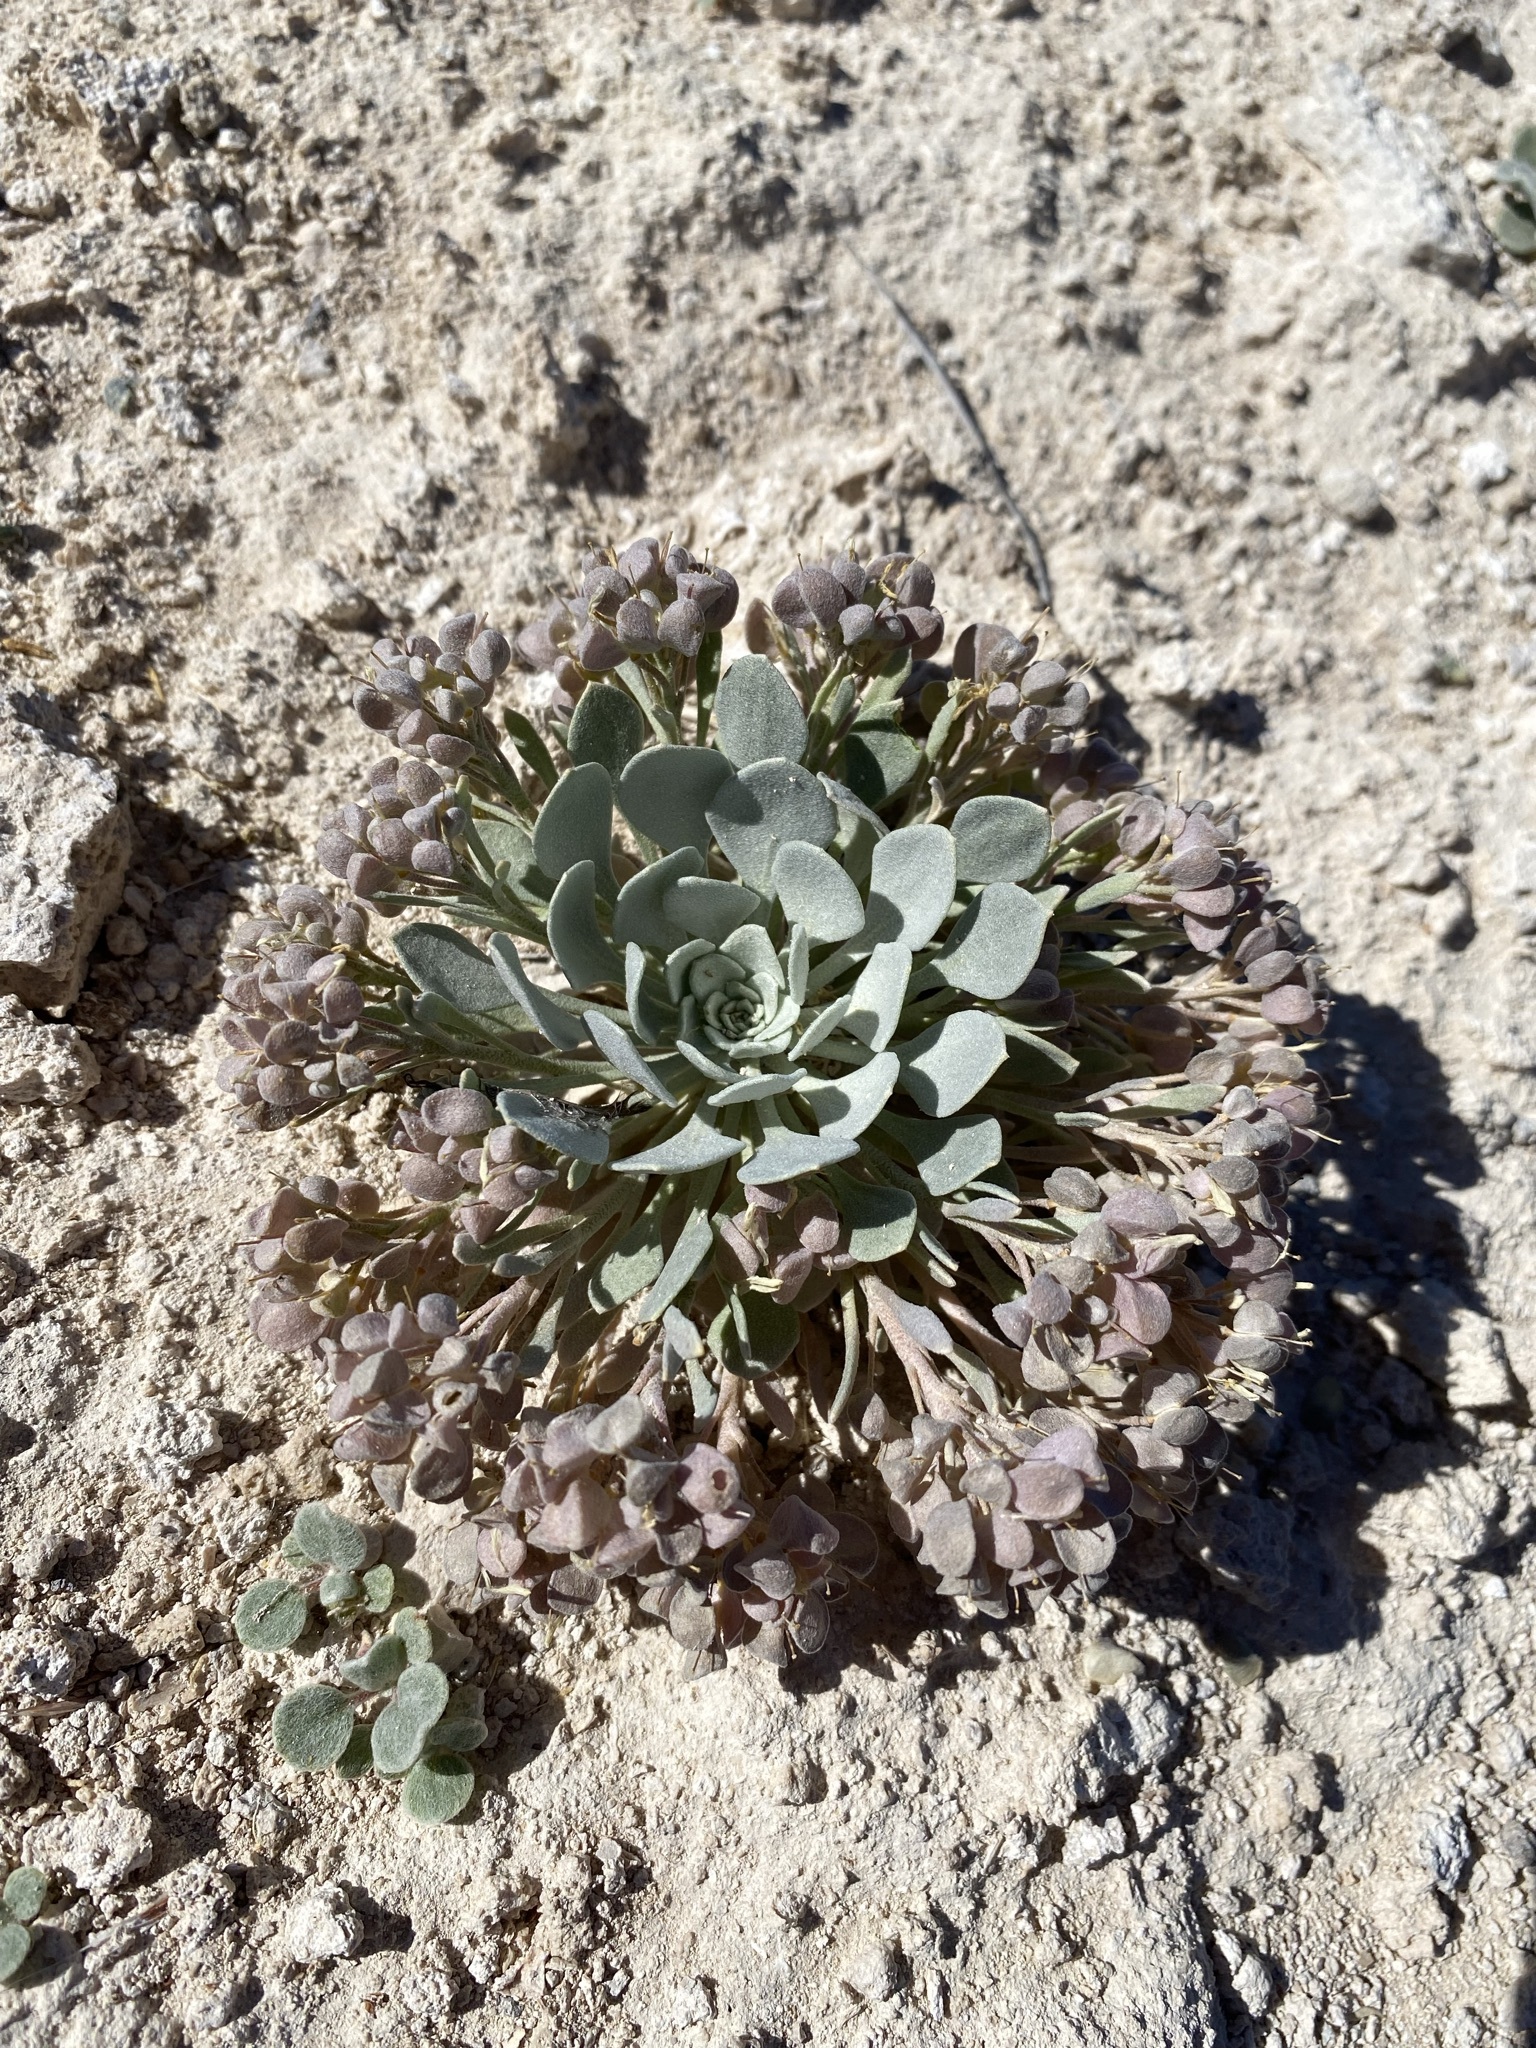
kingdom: Plantae
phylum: Tracheophyta
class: Magnoliopsida
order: Brassicales
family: Brassicaceae
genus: Physaria
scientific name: Physaria chambersii
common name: Chamber's twinpod
